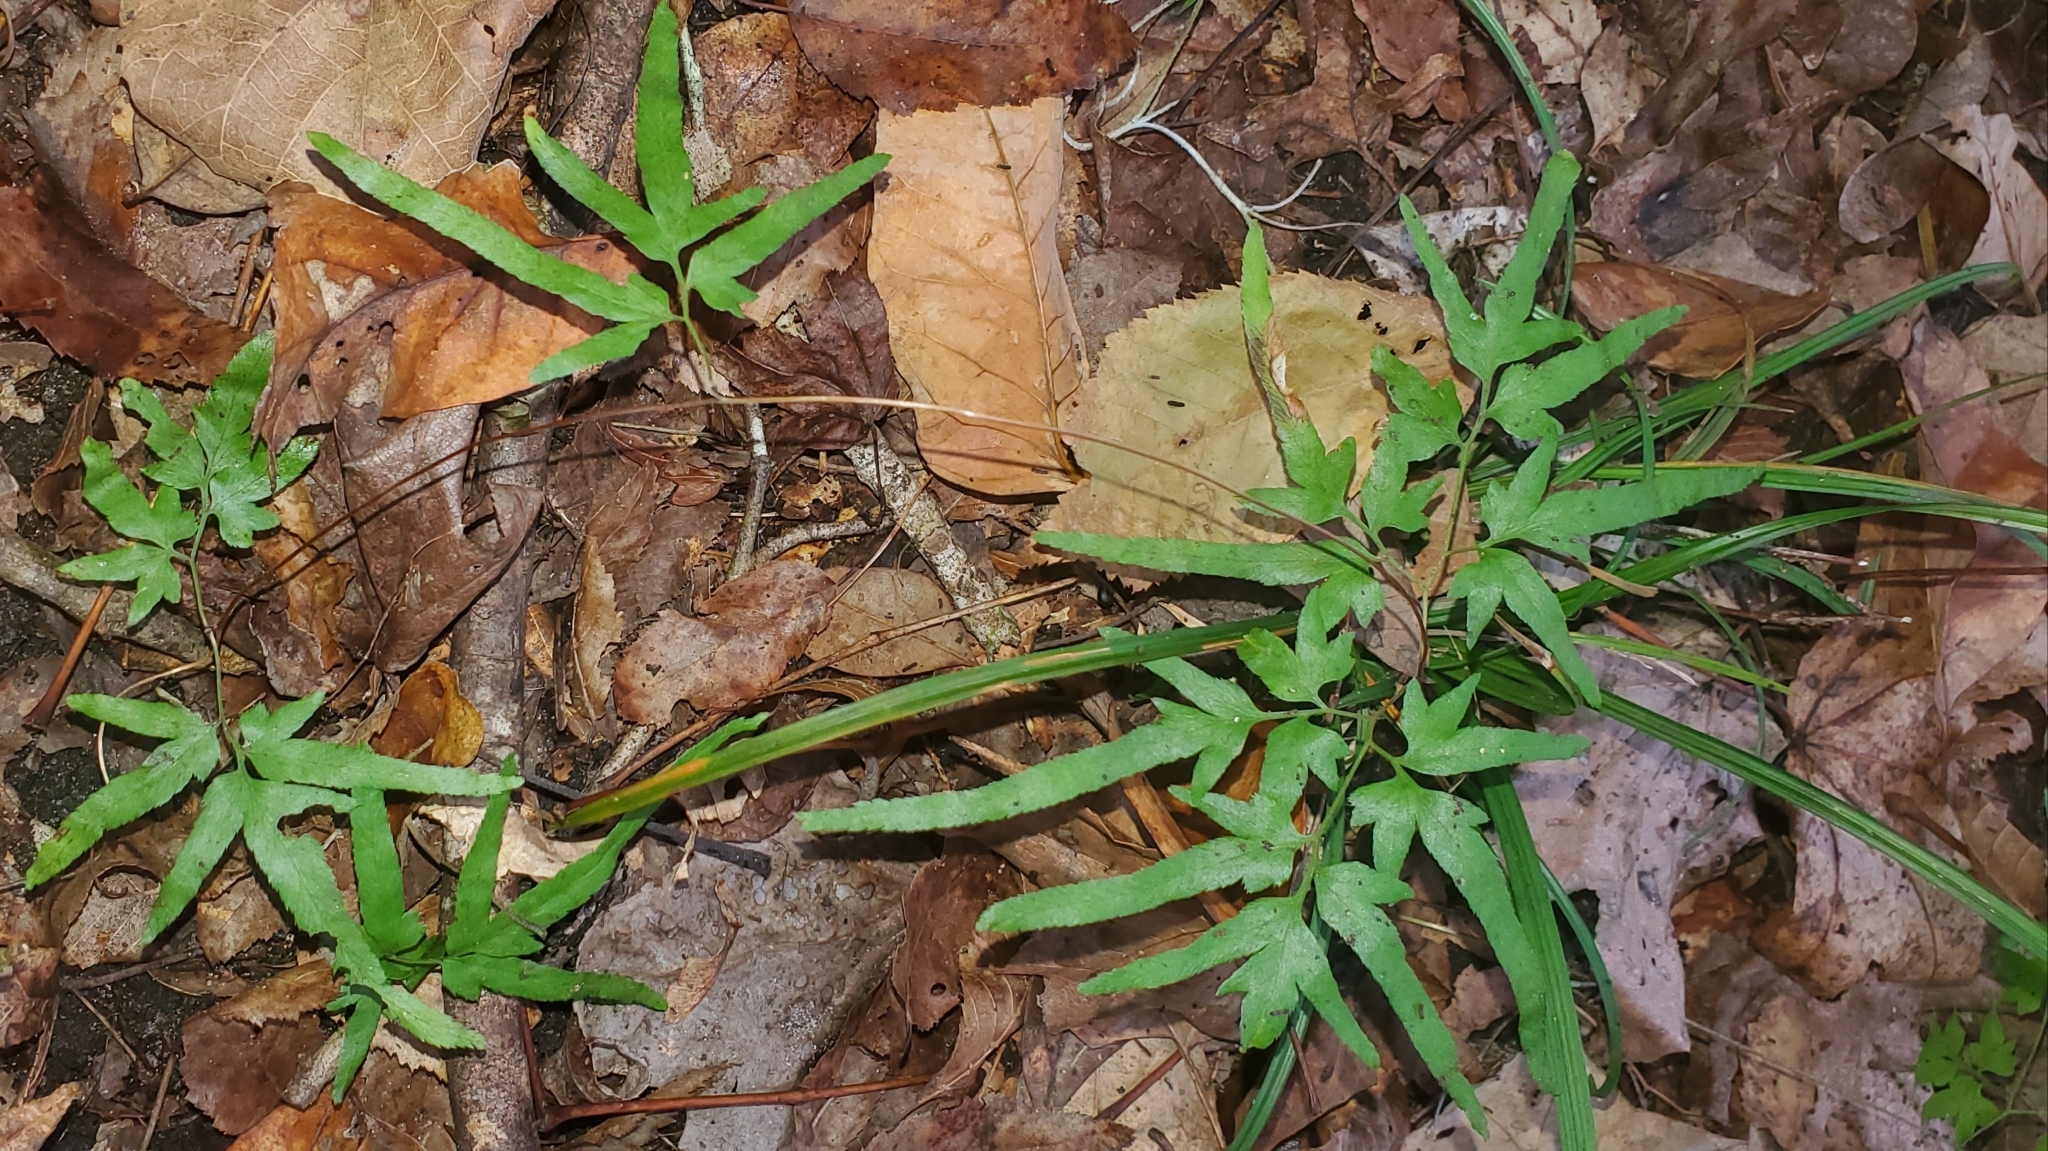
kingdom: Plantae
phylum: Tracheophyta
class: Polypodiopsida
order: Schizaeales
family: Lygodiaceae
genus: Lygodium
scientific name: Lygodium japonicum
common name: Japanese climbing fern
